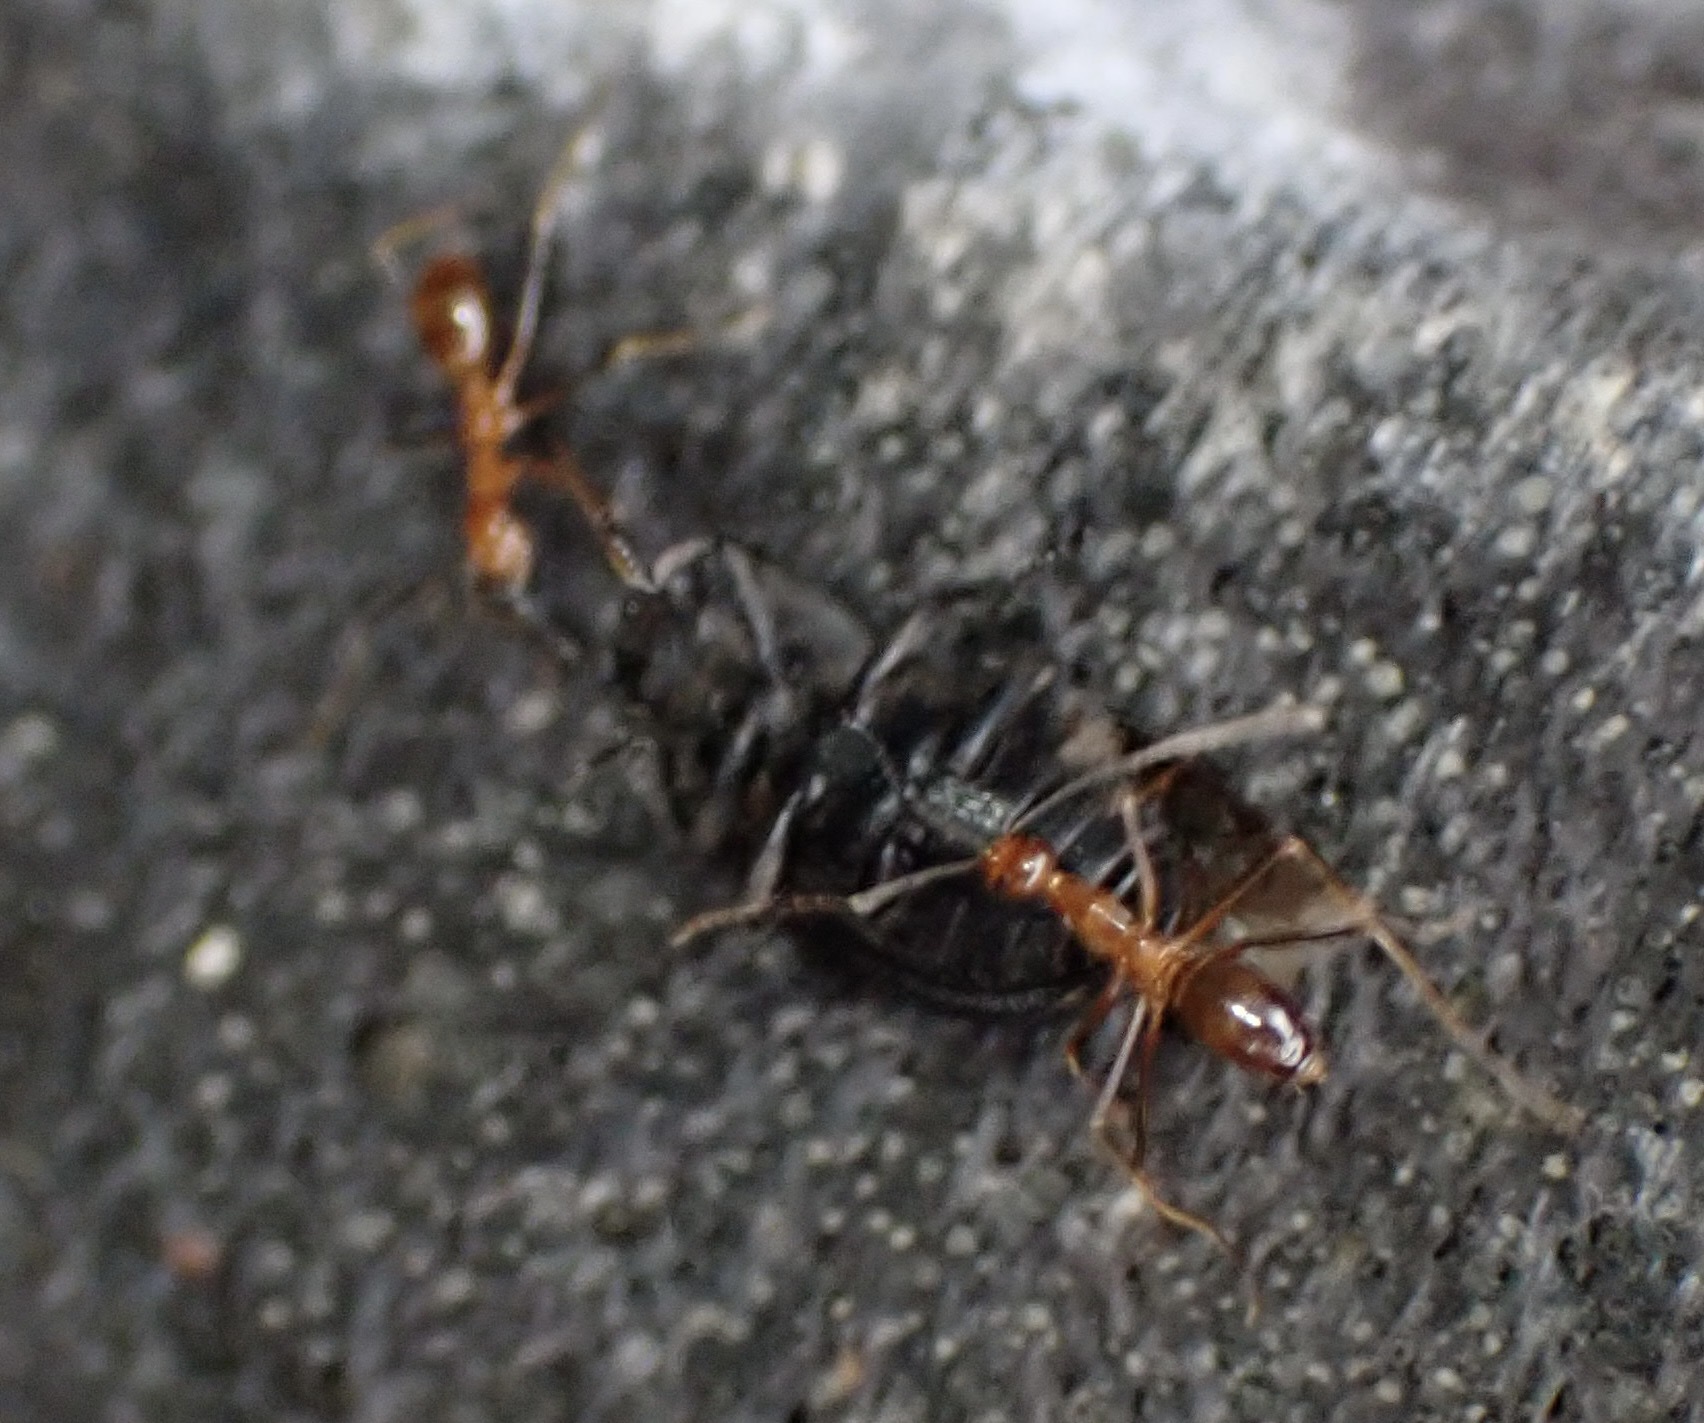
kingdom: Animalia
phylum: Arthropoda
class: Insecta
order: Hymenoptera
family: Formicidae
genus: Anoplolepis
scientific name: Anoplolepis gracilipes
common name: Ant
